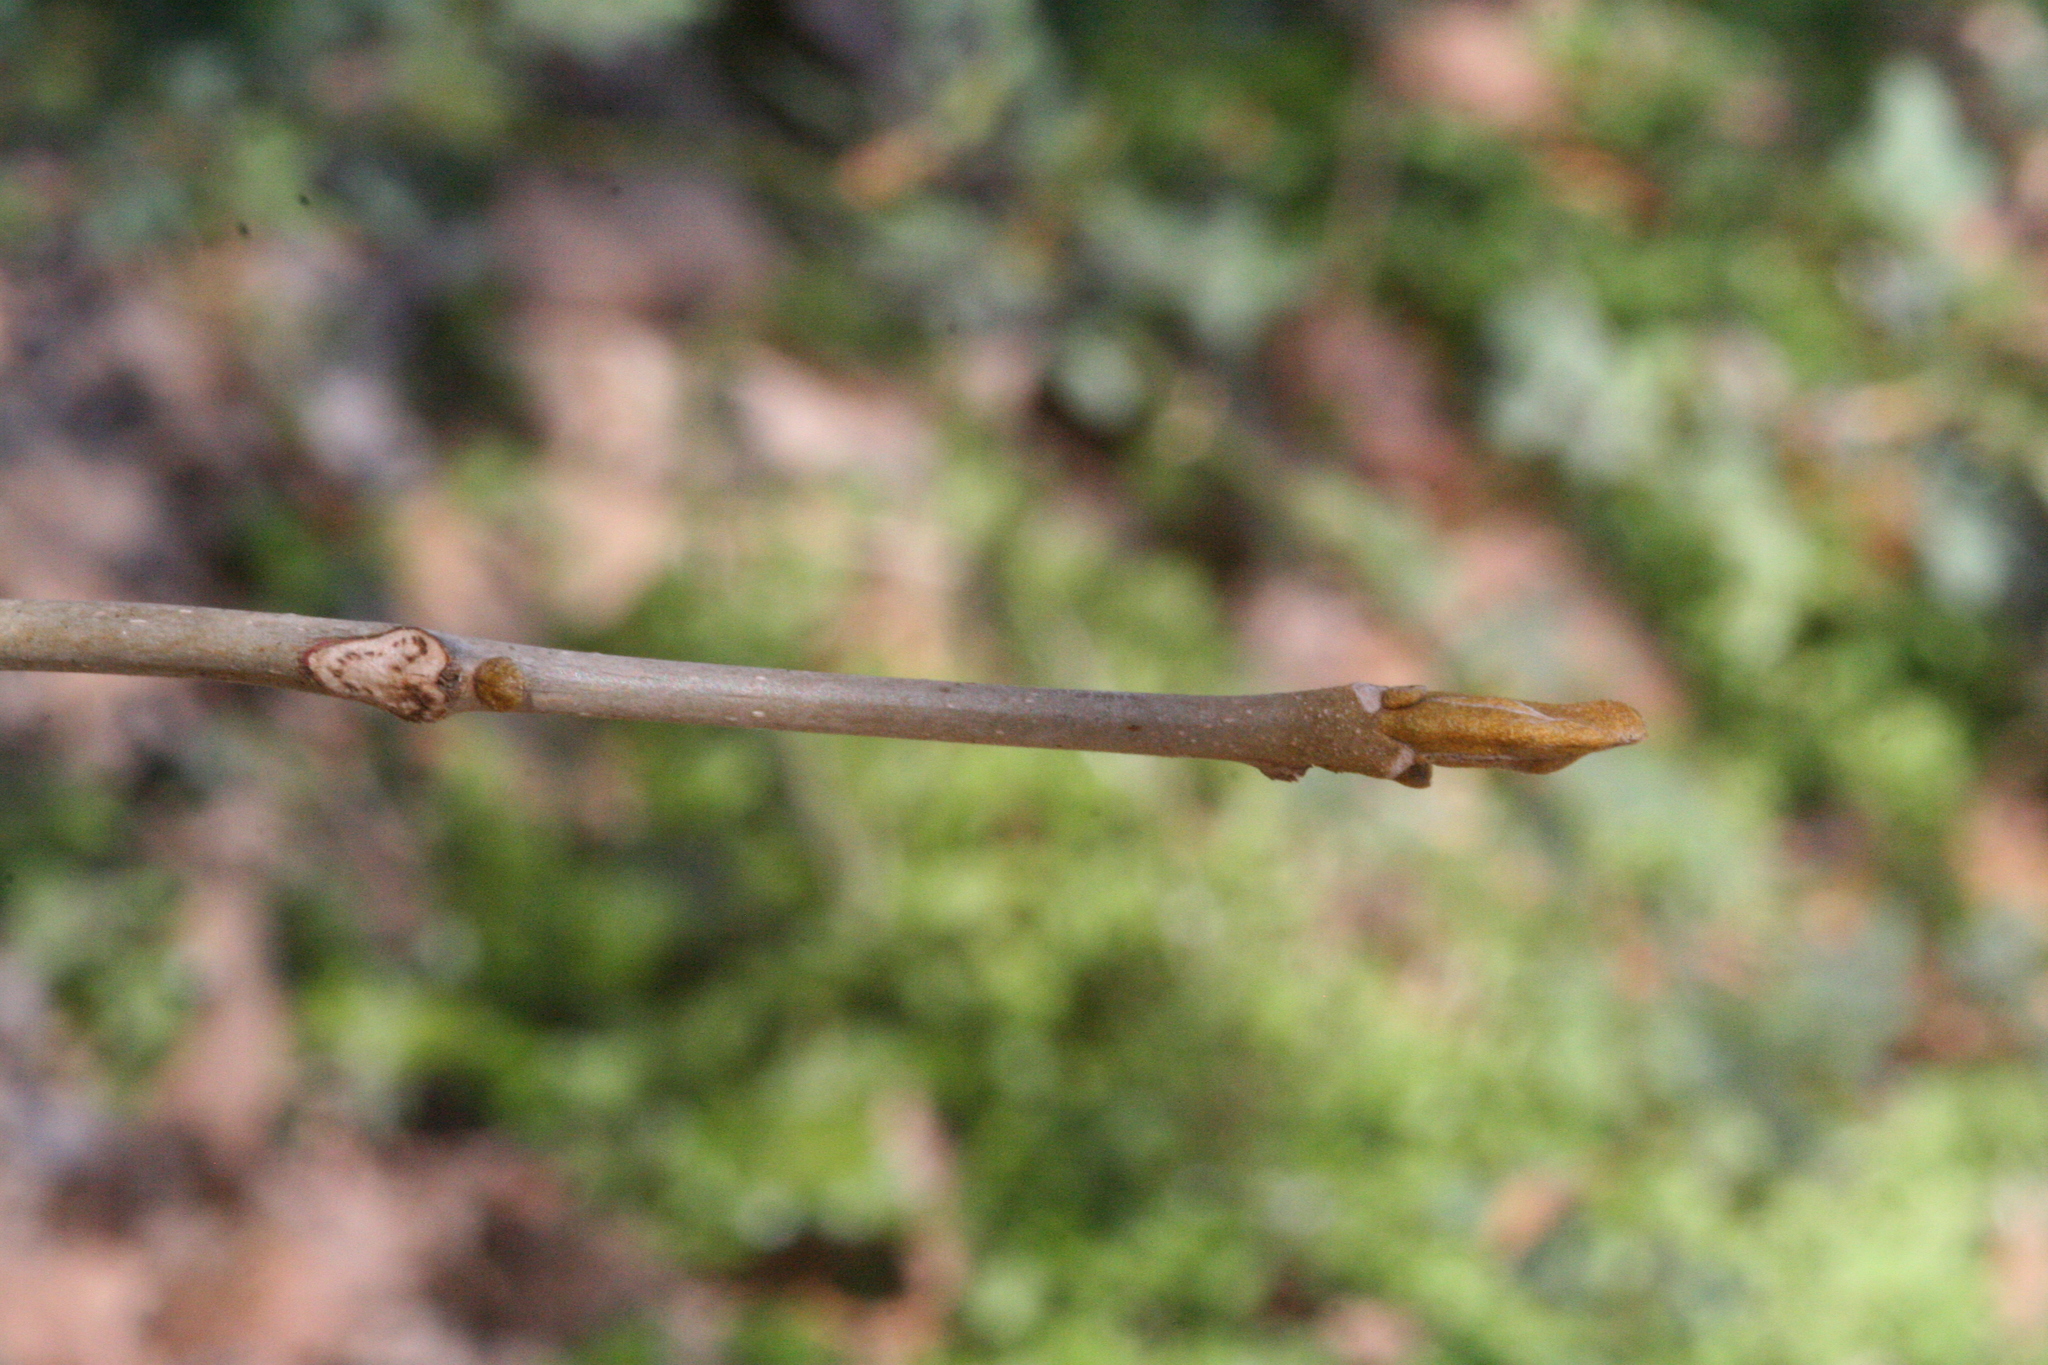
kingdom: Plantae
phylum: Tracheophyta
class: Magnoliopsida
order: Fagales
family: Juglandaceae
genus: Carya
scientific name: Carya cordiformis
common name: Bitternut hickory
